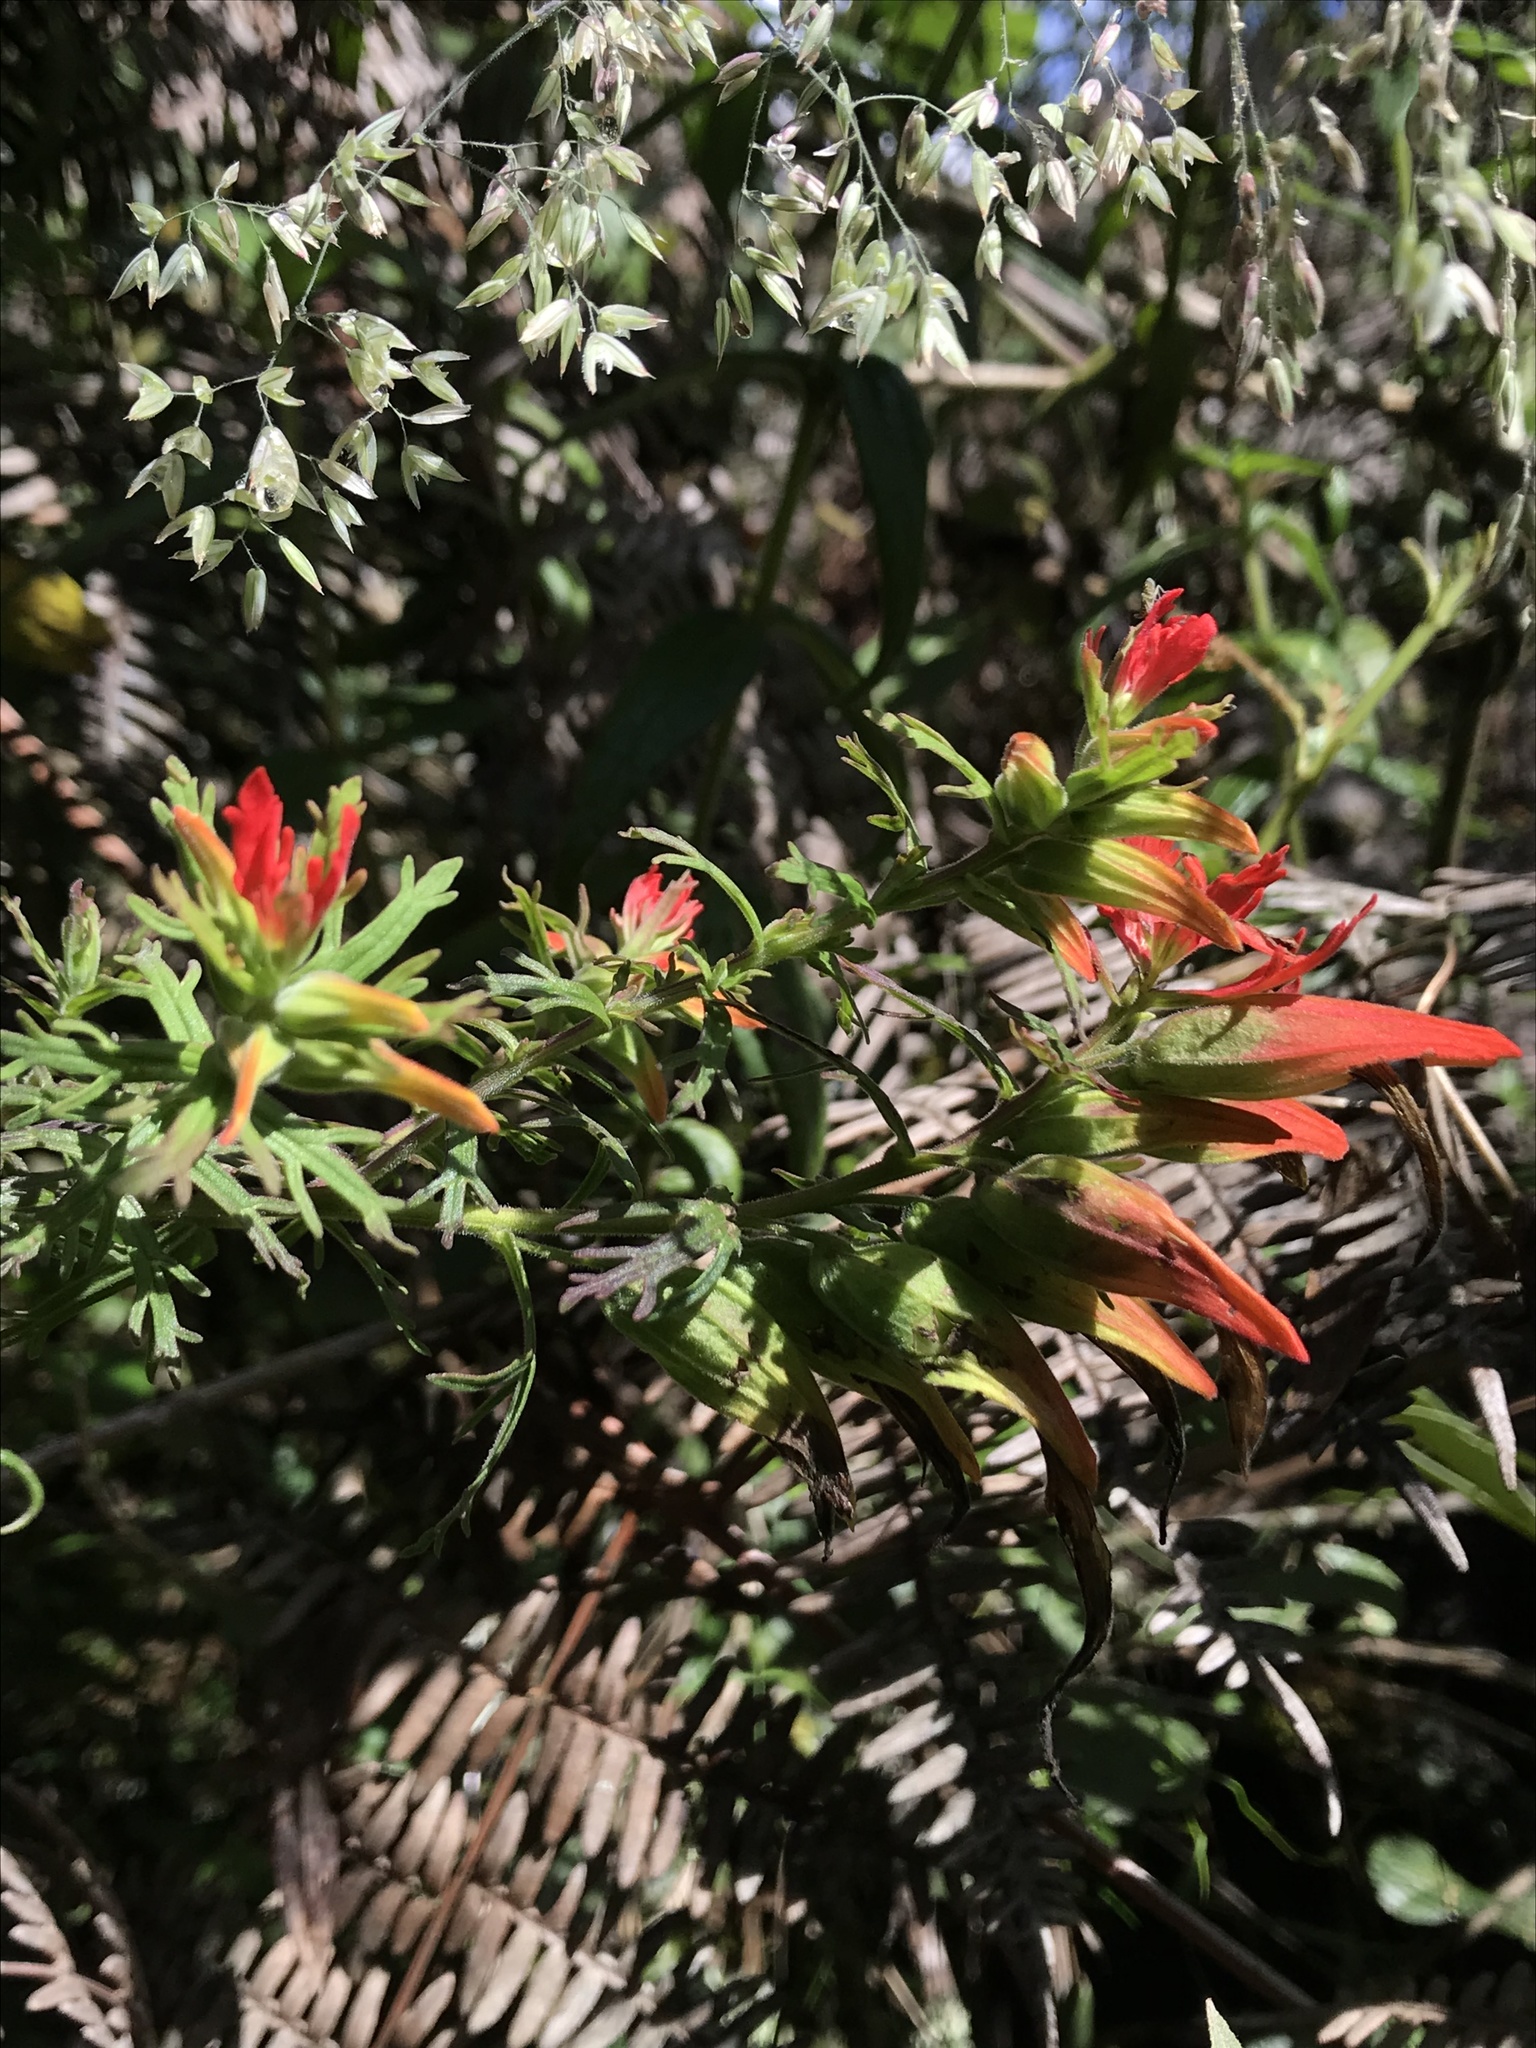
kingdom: Plantae
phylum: Tracheophyta
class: Magnoliopsida
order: Lamiales
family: Orobanchaceae
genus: Castilleja
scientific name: Castilleja fissifolia
